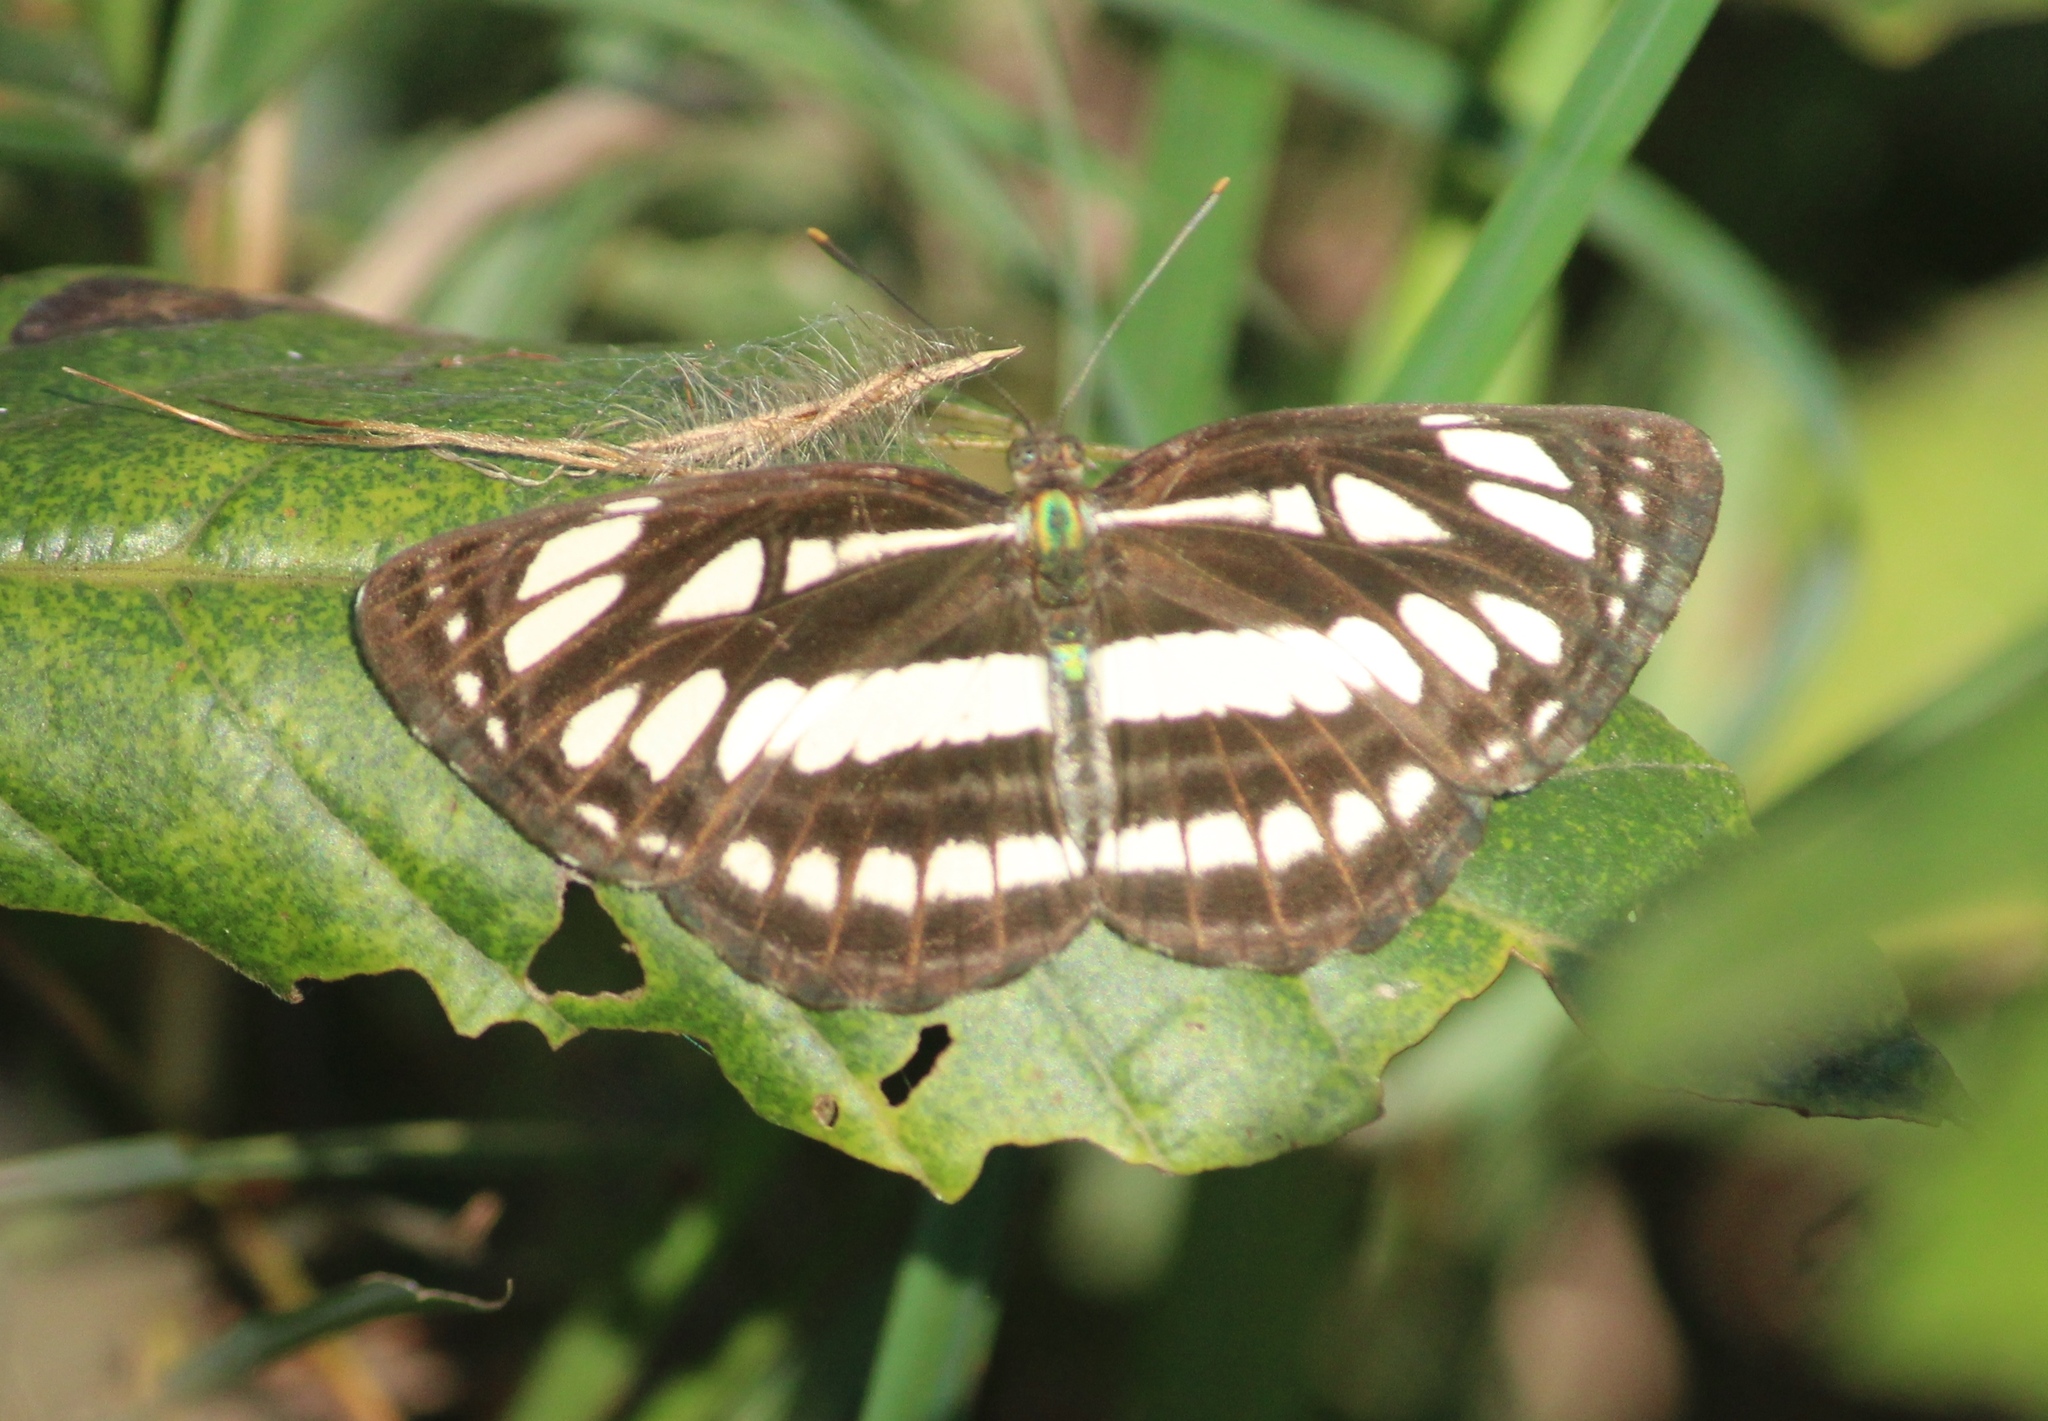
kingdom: Animalia
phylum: Arthropoda
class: Insecta
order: Lepidoptera
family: Nymphalidae
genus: Neptis
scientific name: Neptis hylas
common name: Common sailer
